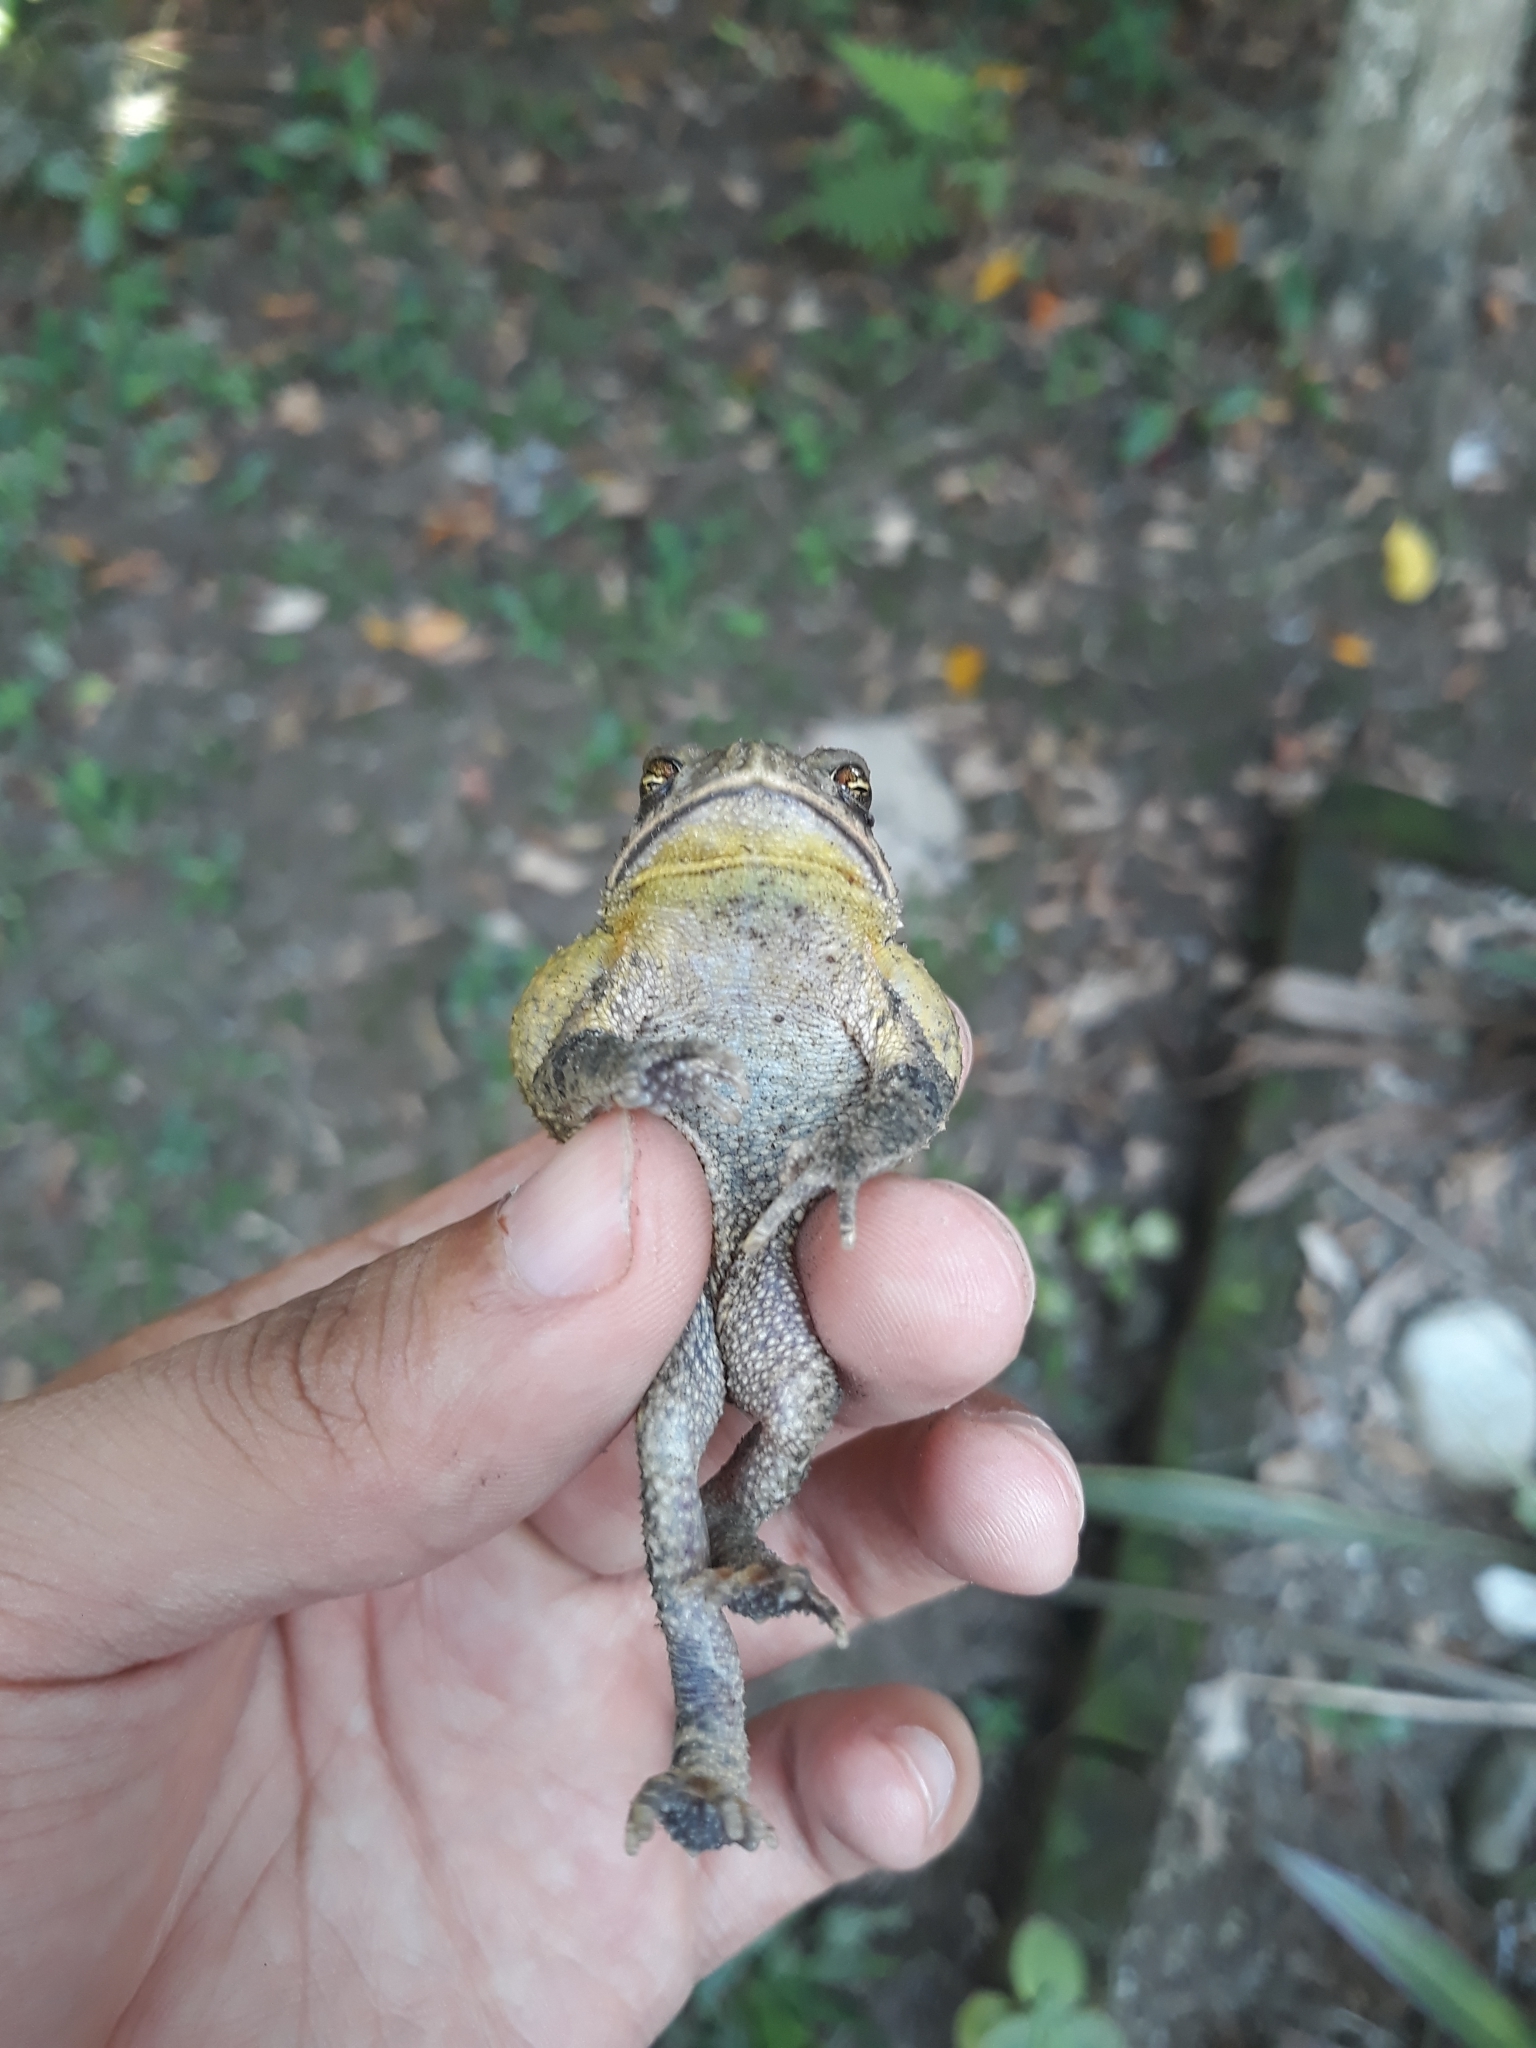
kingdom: Animalia
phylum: Chordata
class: Amphibia
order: Anura
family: Bufonidae
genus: Incilius
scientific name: Incilius valliceps
